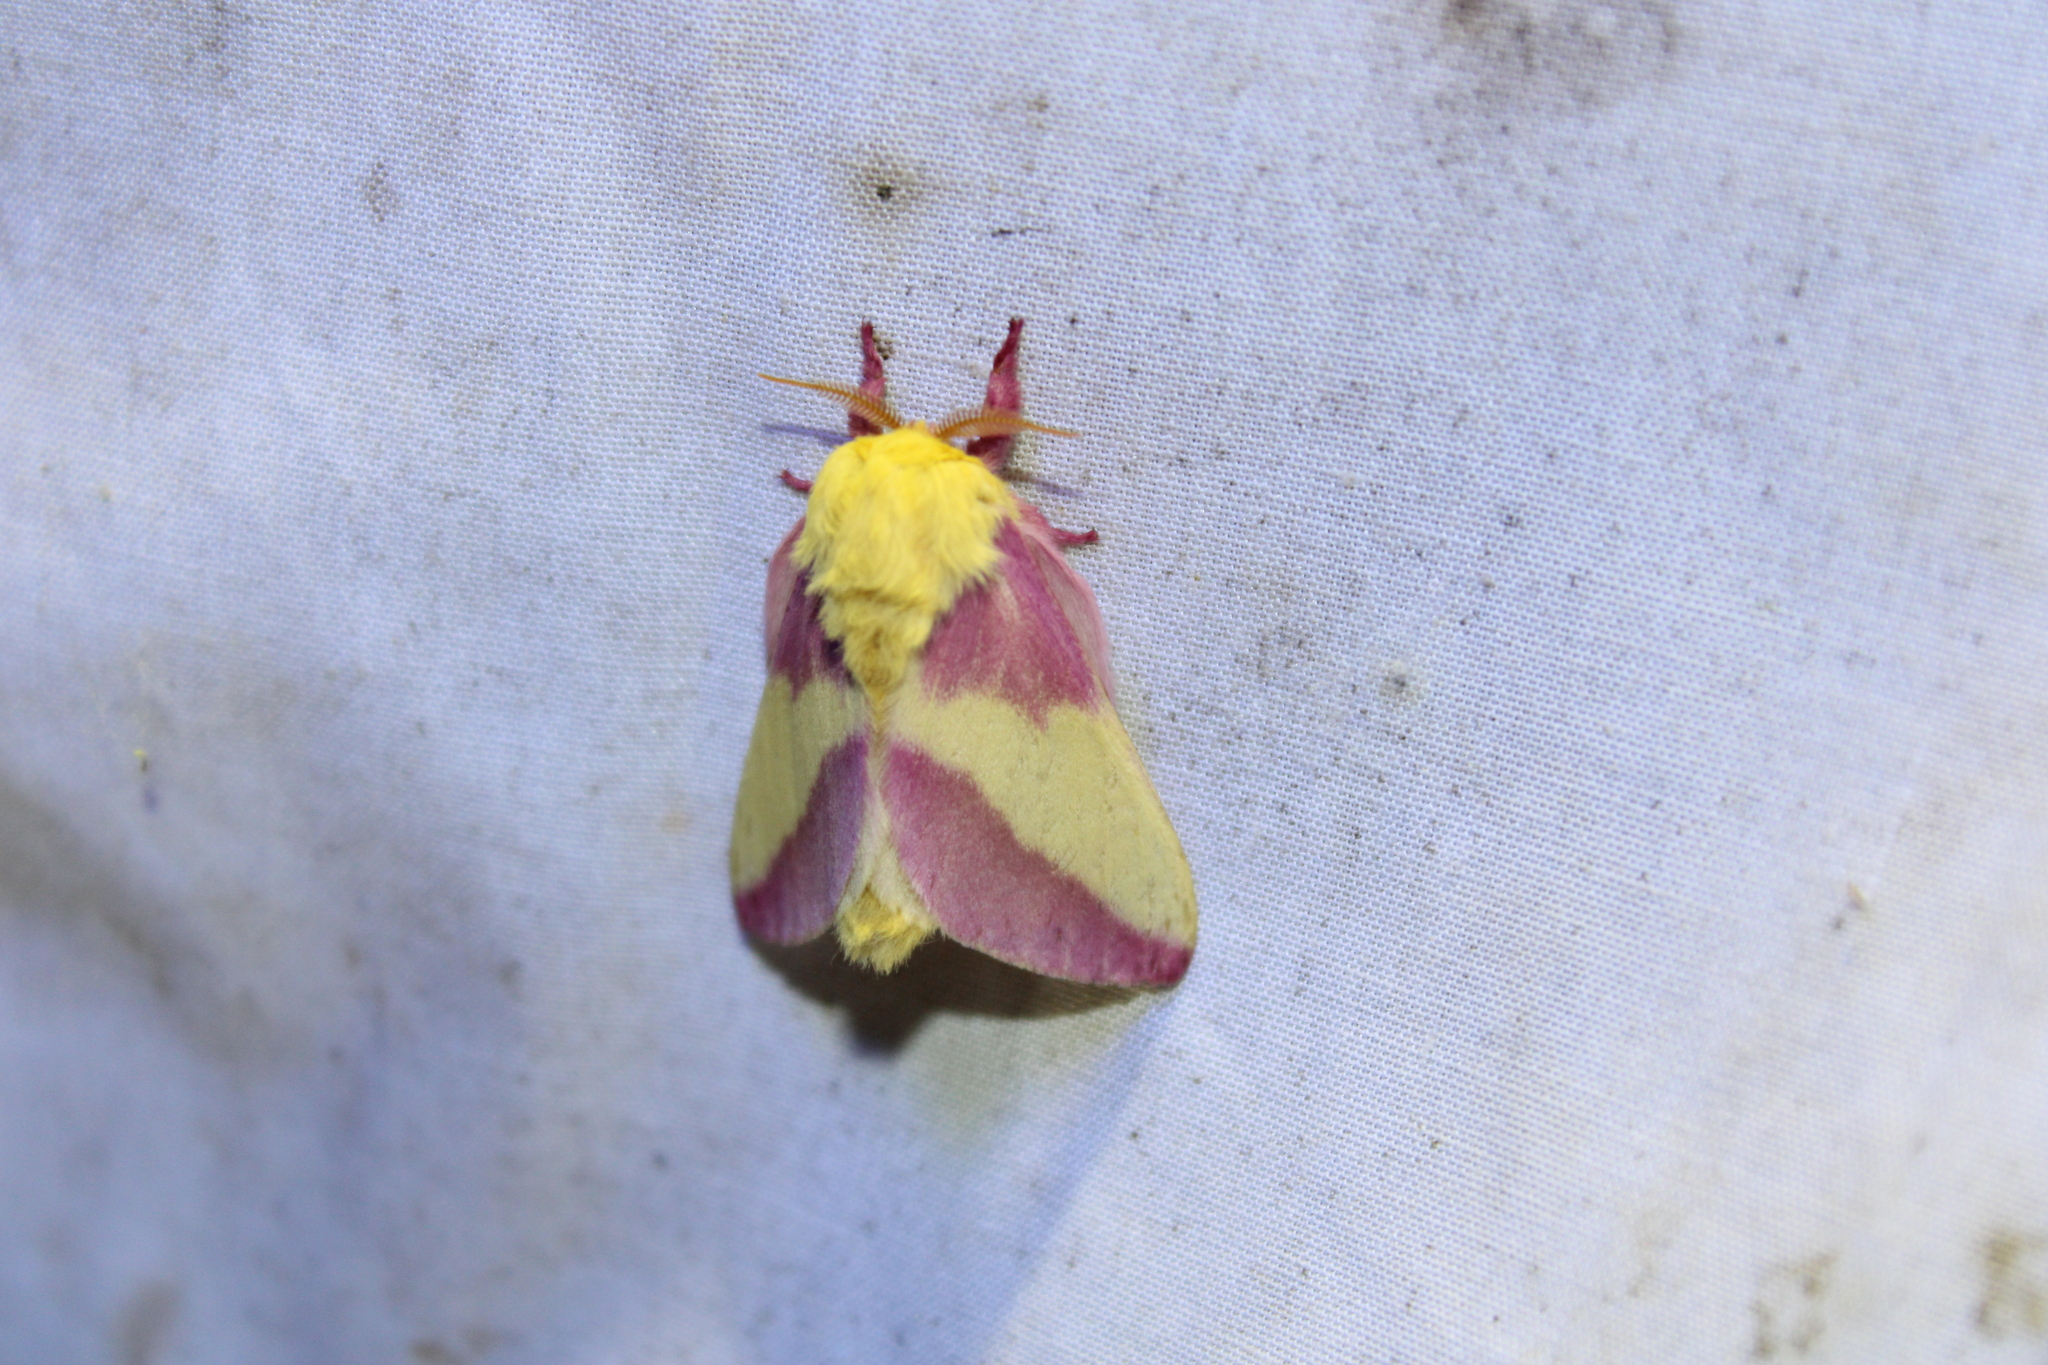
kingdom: Animalia
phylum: Arthropoda
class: Insecta
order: Lepidoptera
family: Saturniidae
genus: Dryocampa
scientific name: Dryocampa rubicunda
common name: Rosy maple moth
